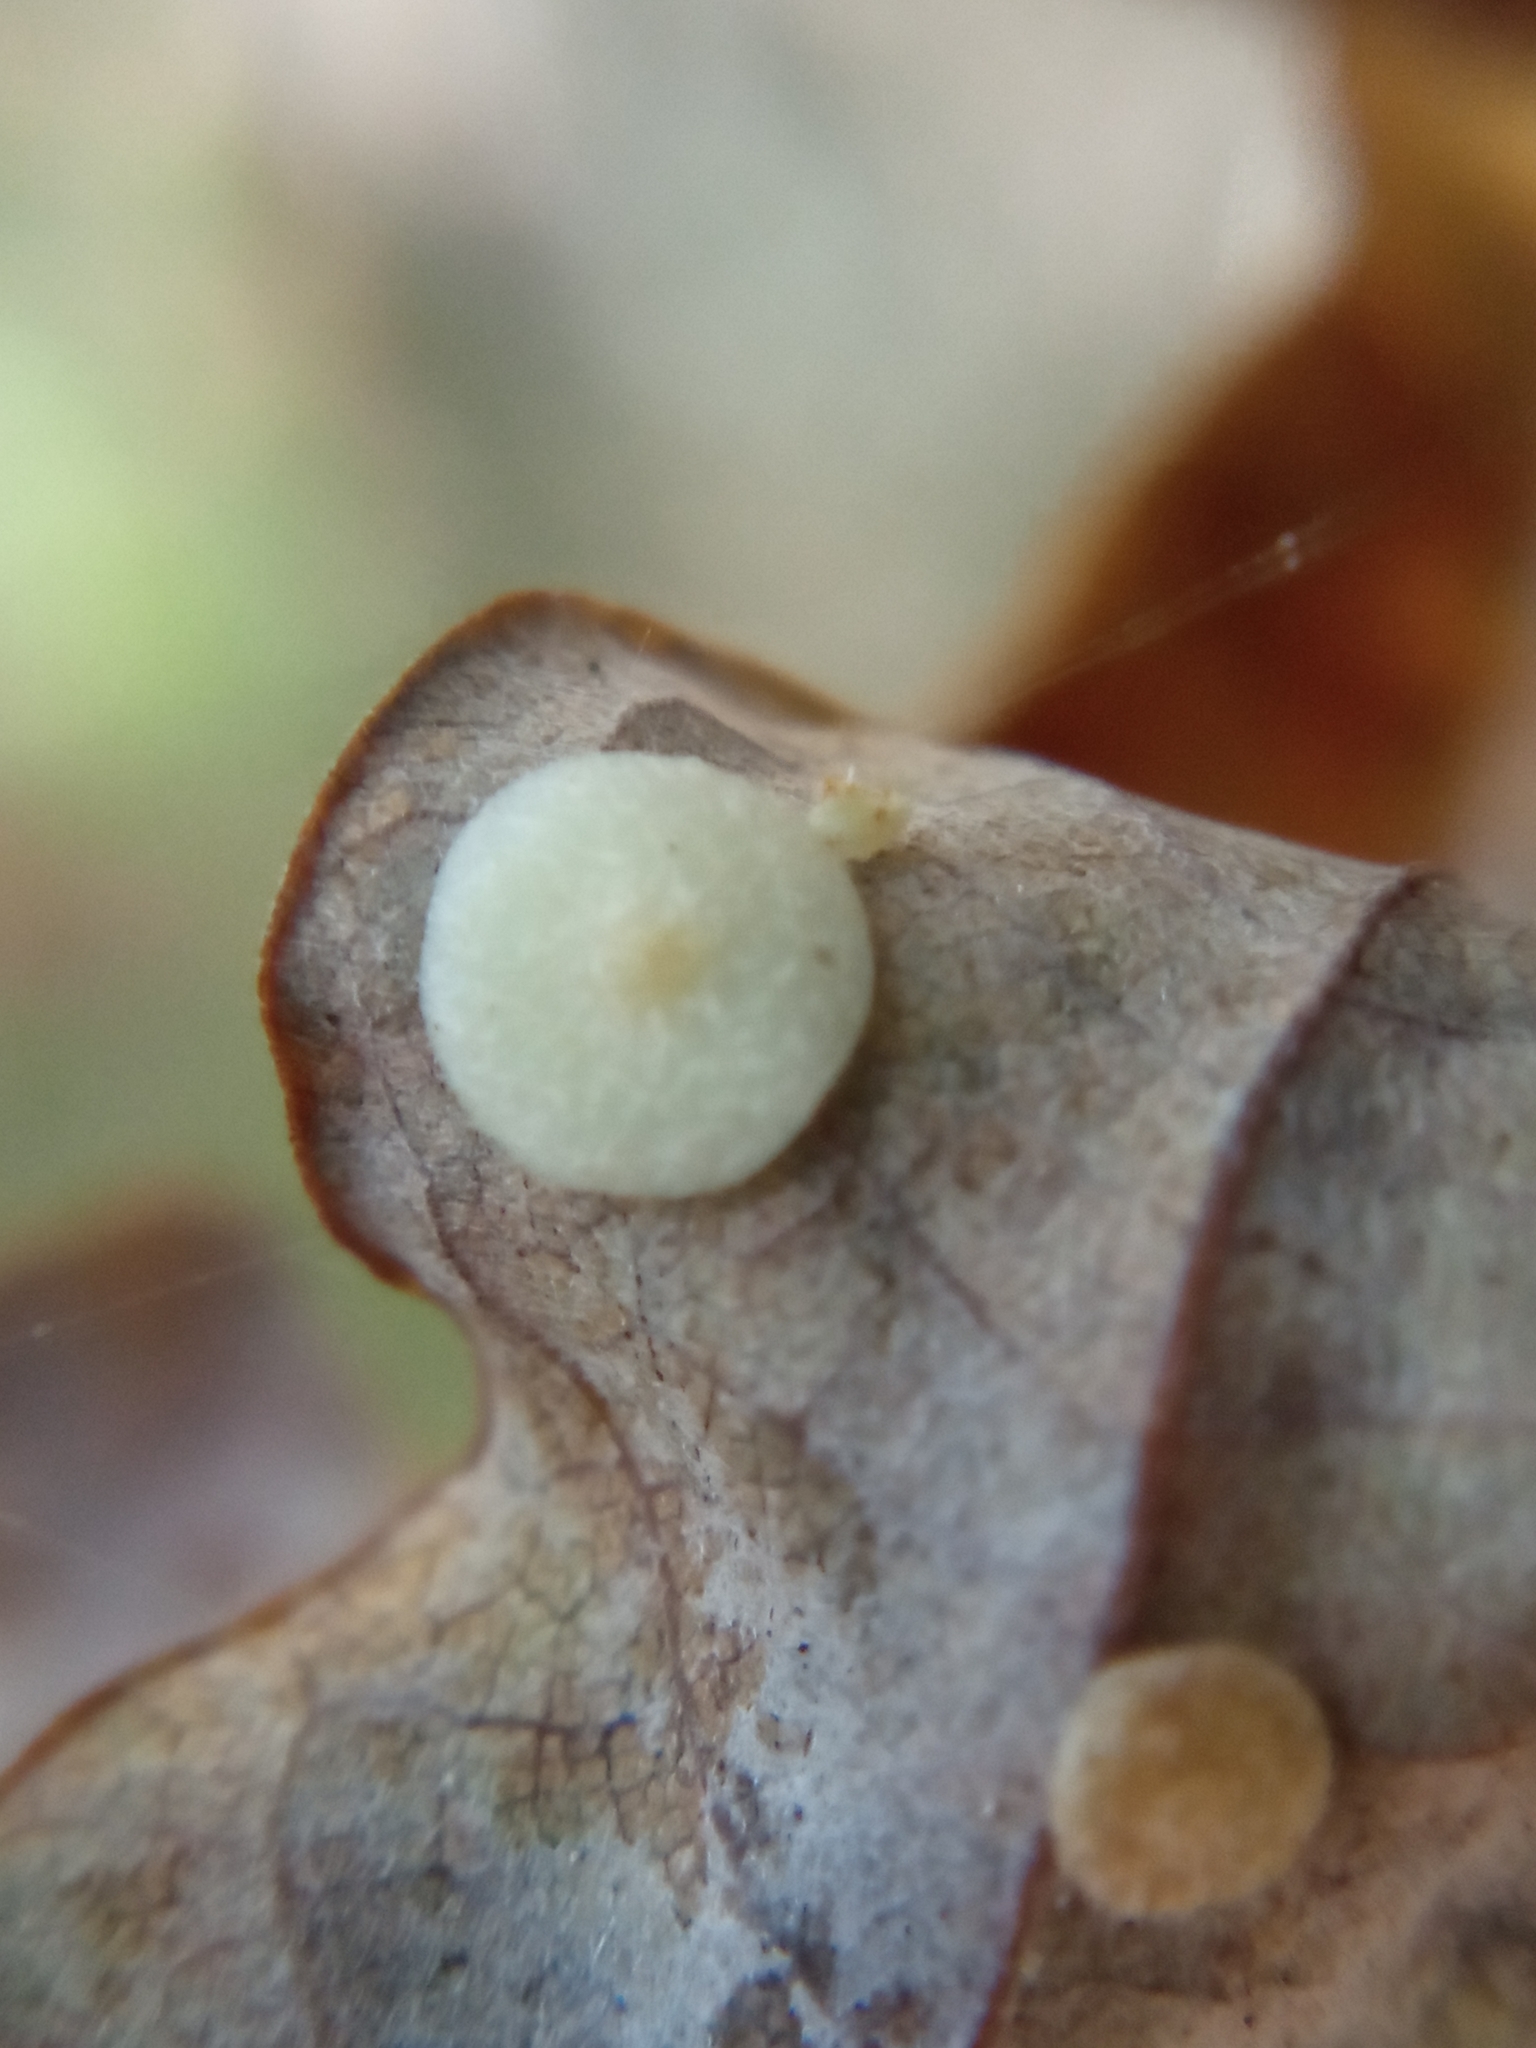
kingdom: Animalia
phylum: Arthropoda
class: Insecta
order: Hymenoptera
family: Cynipidae
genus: Neuroterus
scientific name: Neuroterus quercusbaccarum
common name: Common spangle gall
